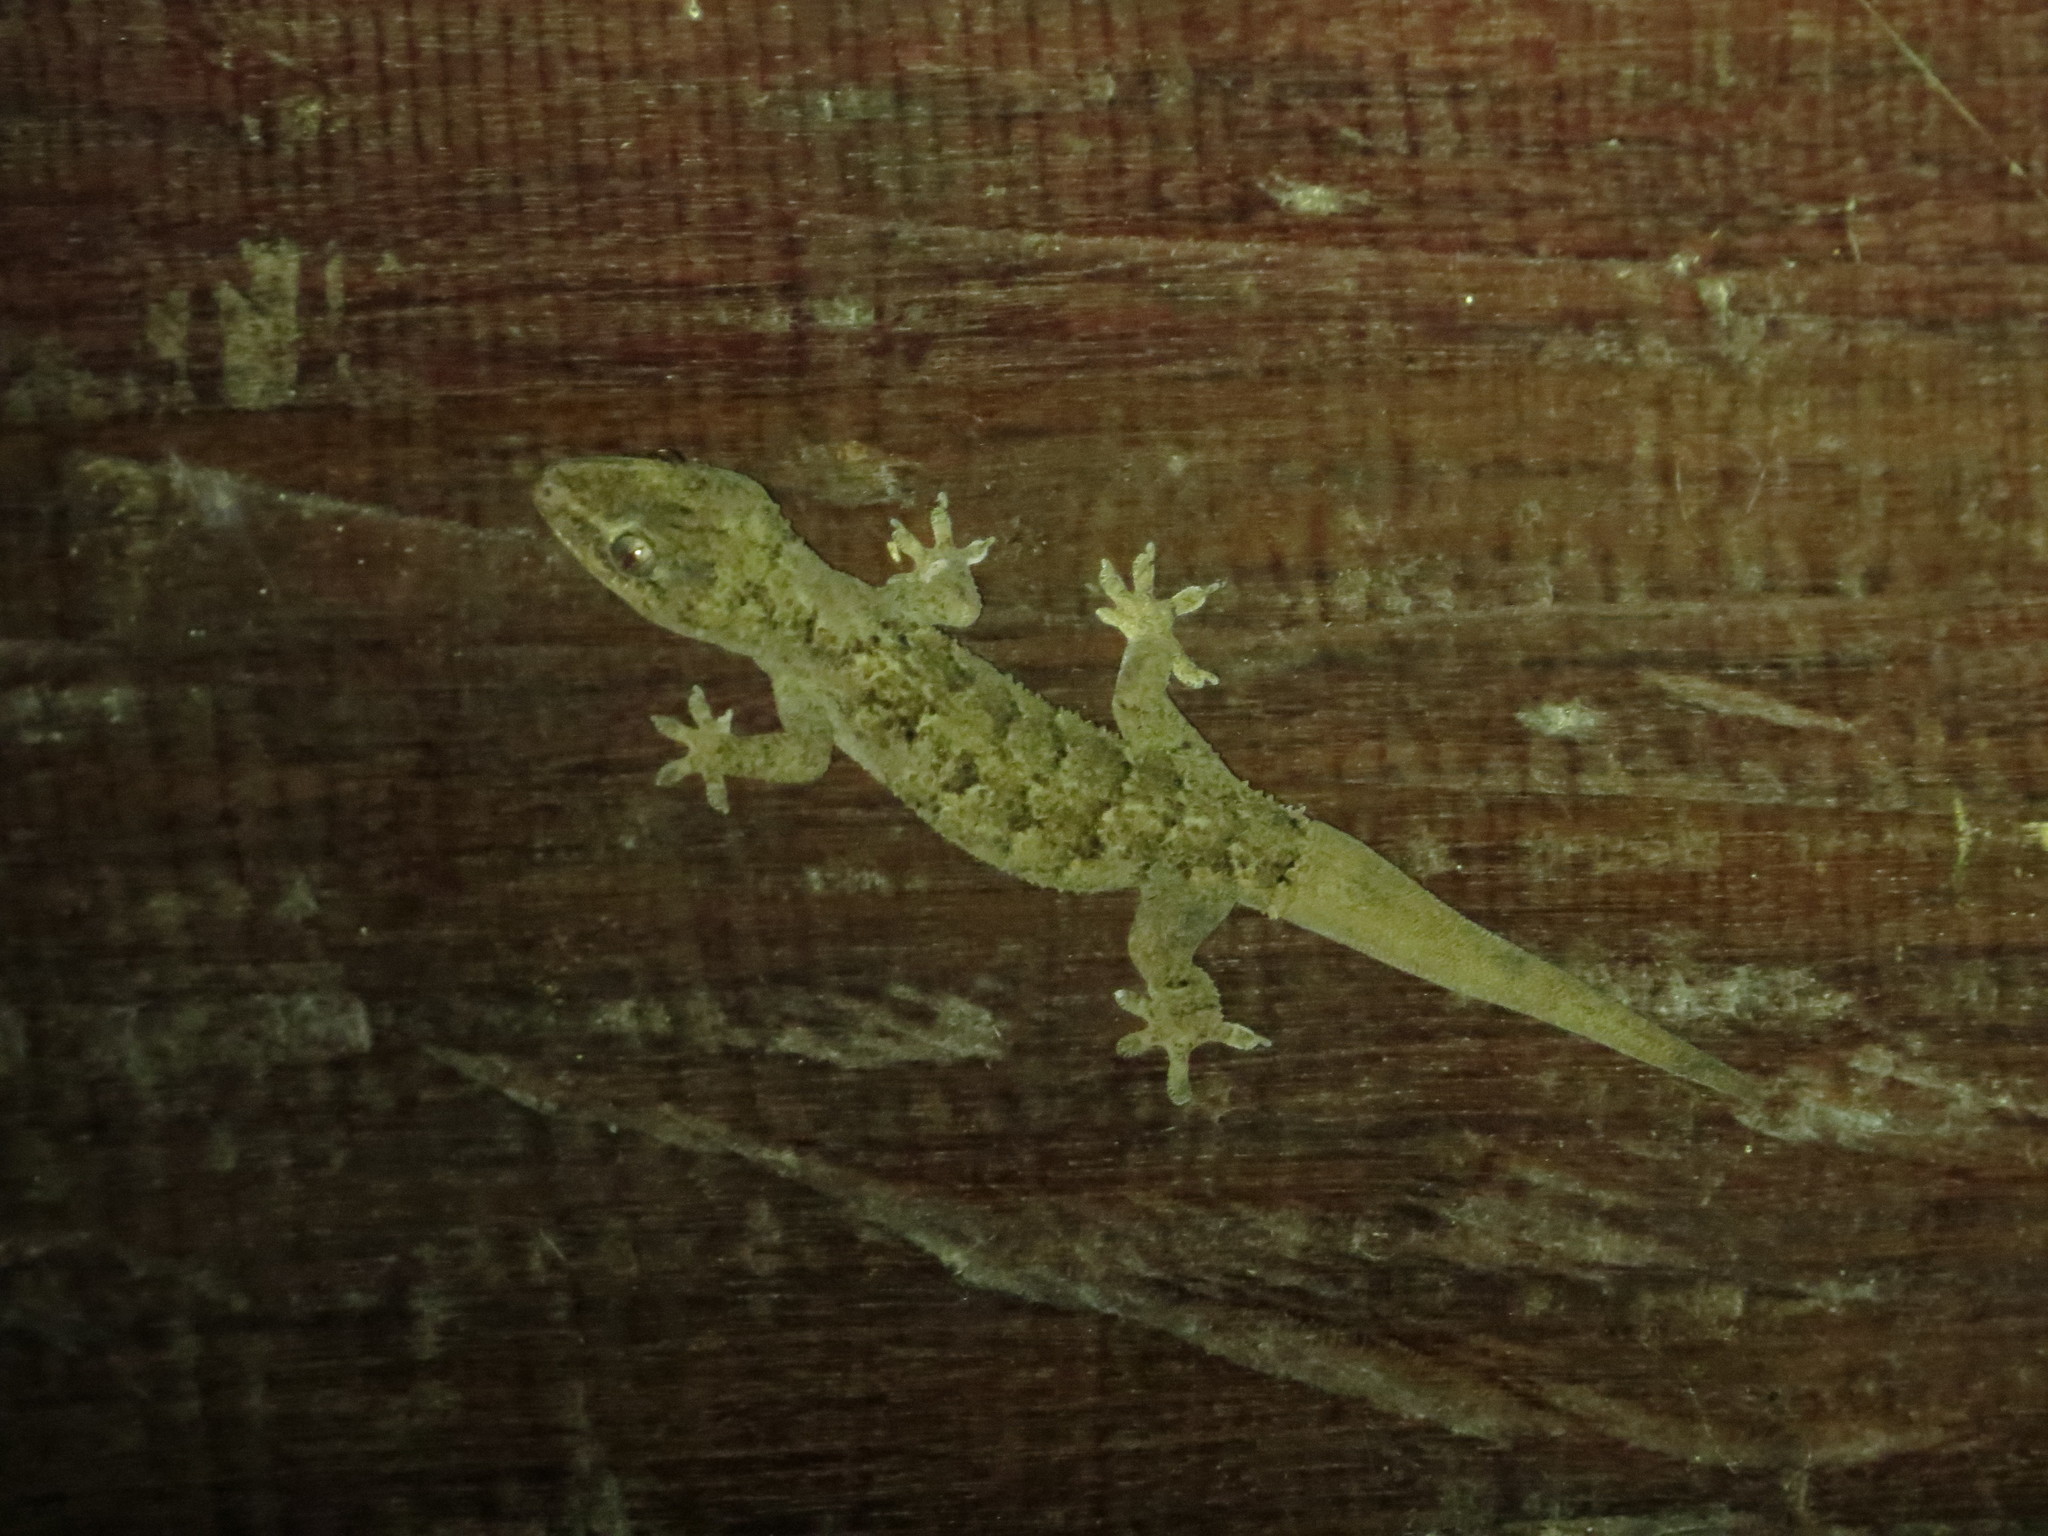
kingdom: Animalia
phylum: Chordata
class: Squamata
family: Gekkonidae
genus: Hemidactylus
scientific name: Hemidactylus palaichthus
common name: Antilles leaf-toed gecko
